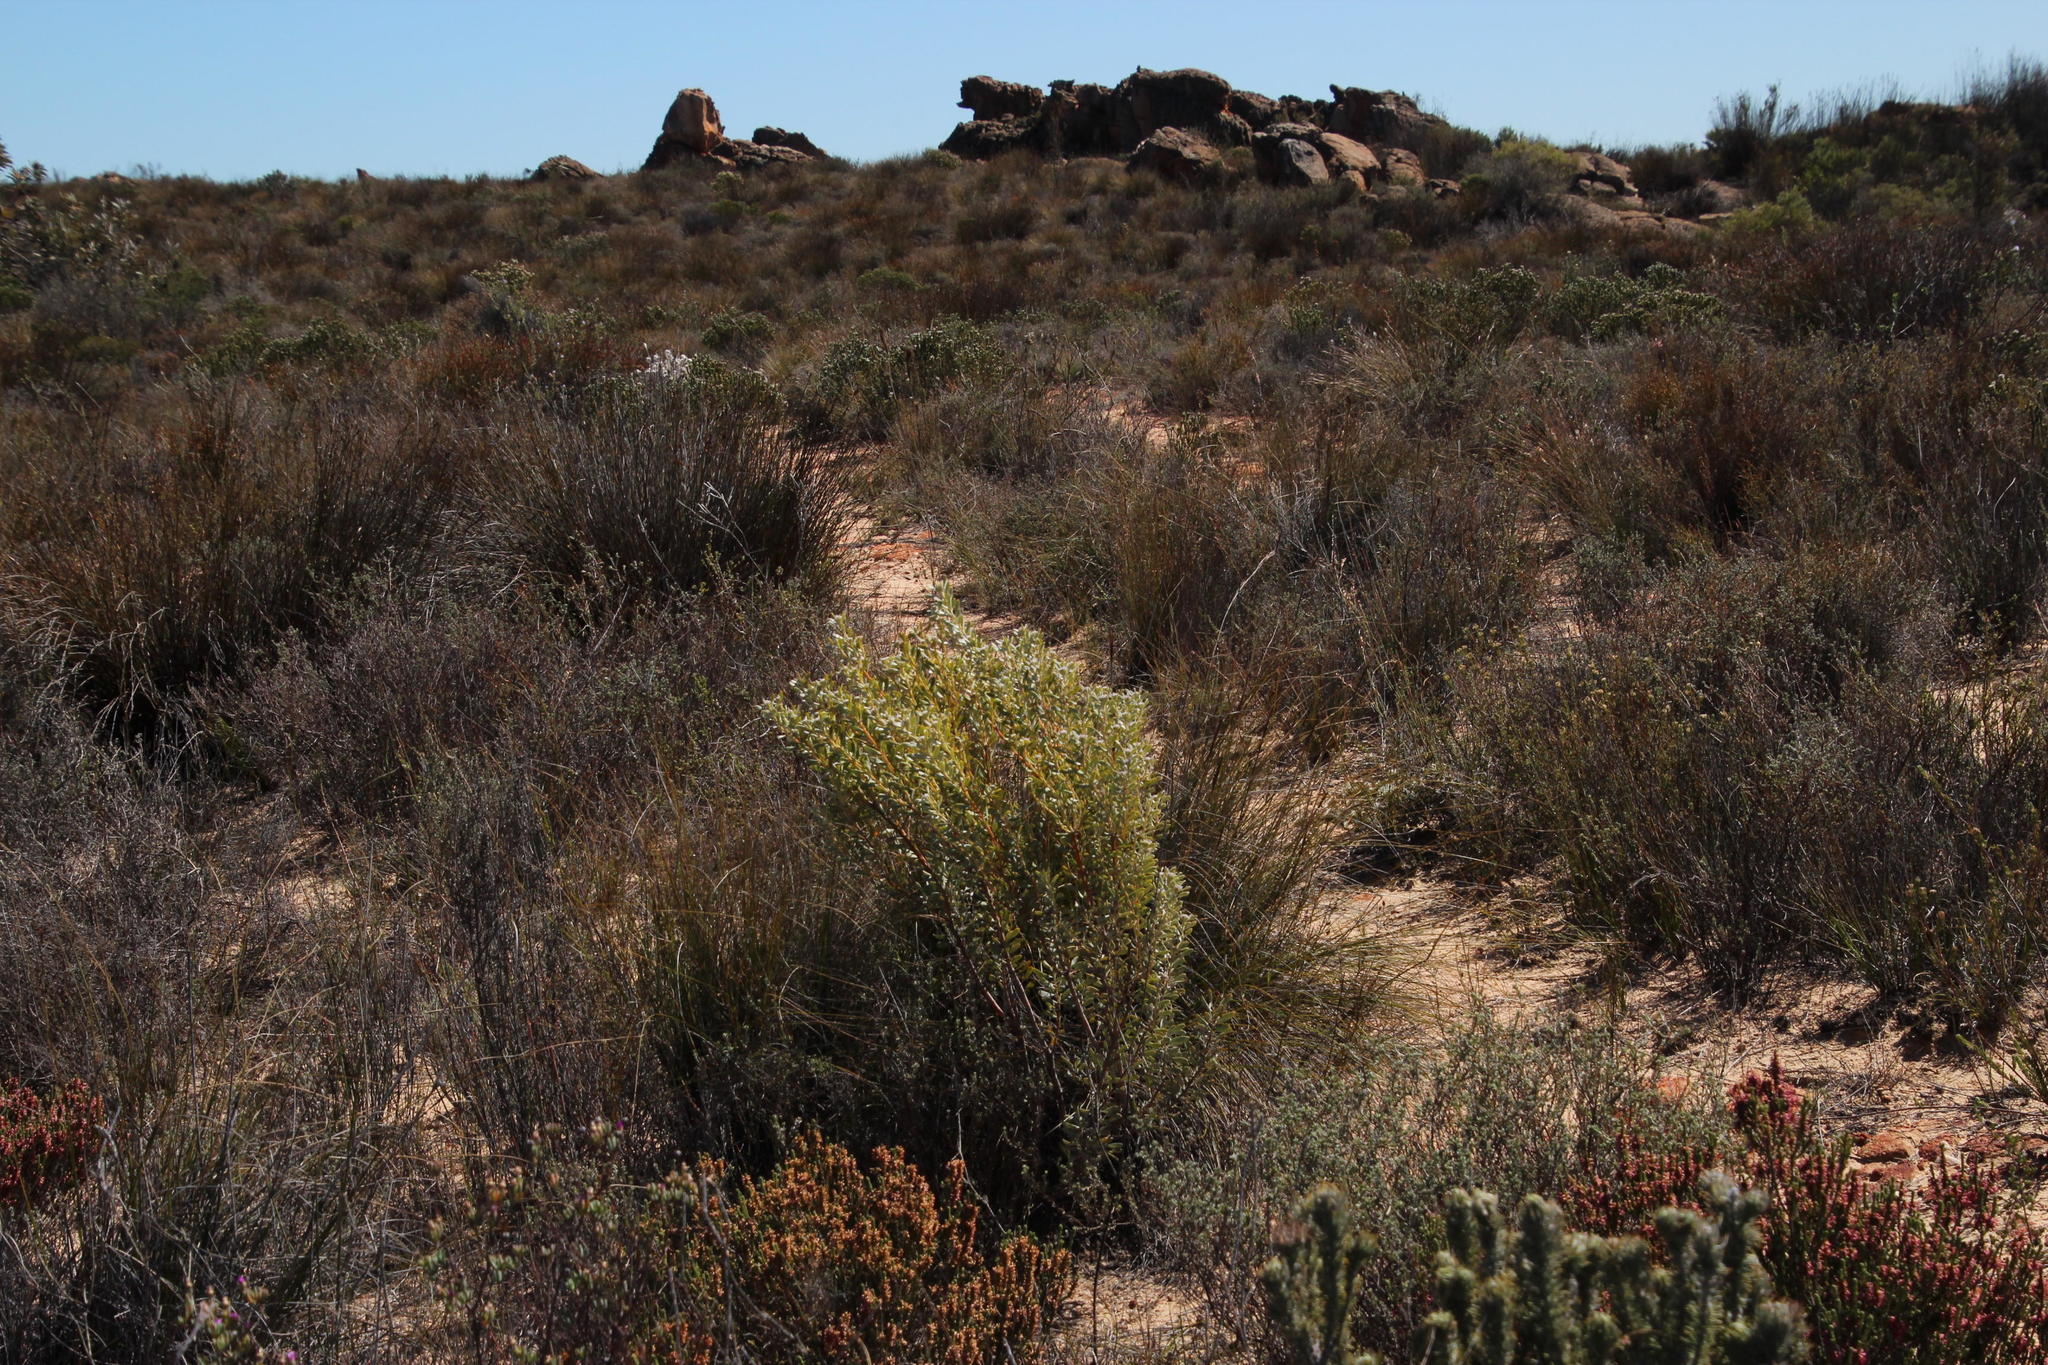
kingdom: Plantae
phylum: Tracheophyta
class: Magnoliopsida
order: Proteales
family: Proteaceae
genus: Leucadendron
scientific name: Leucadendron pubescens
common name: Grey conebush
